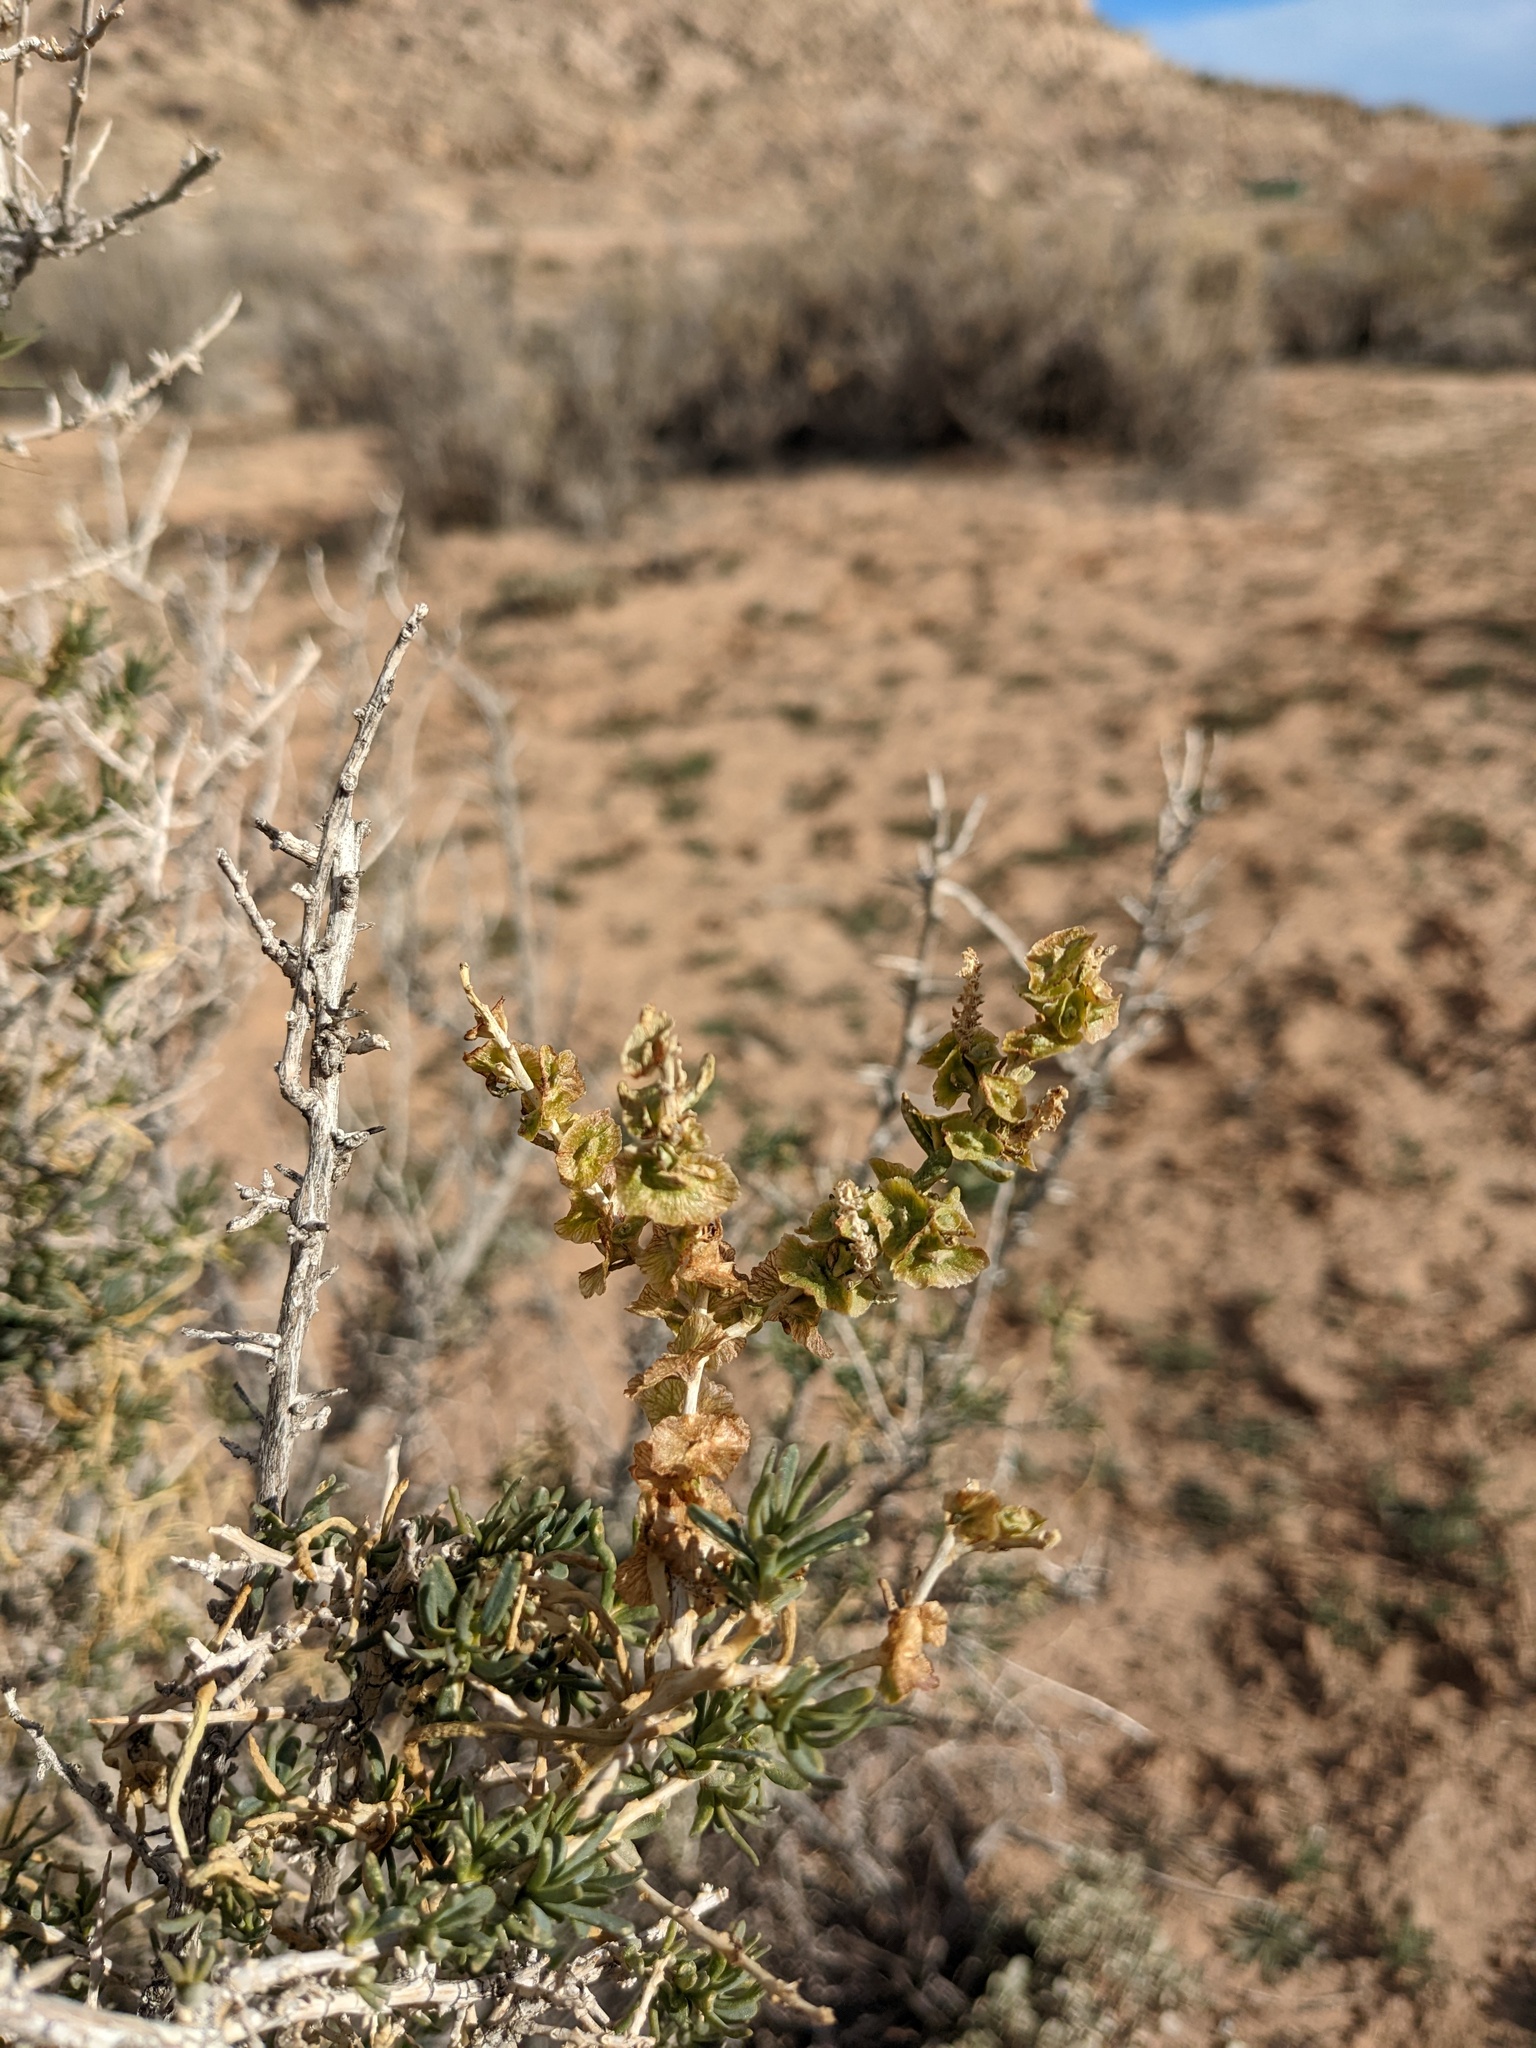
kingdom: Plantae
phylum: Tracheophyta
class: Magnoliopsida
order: Caryophyllales
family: Sarcobataceae
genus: Sarcobatus
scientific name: Sarcobatus vermiculatus
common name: Greasewood
